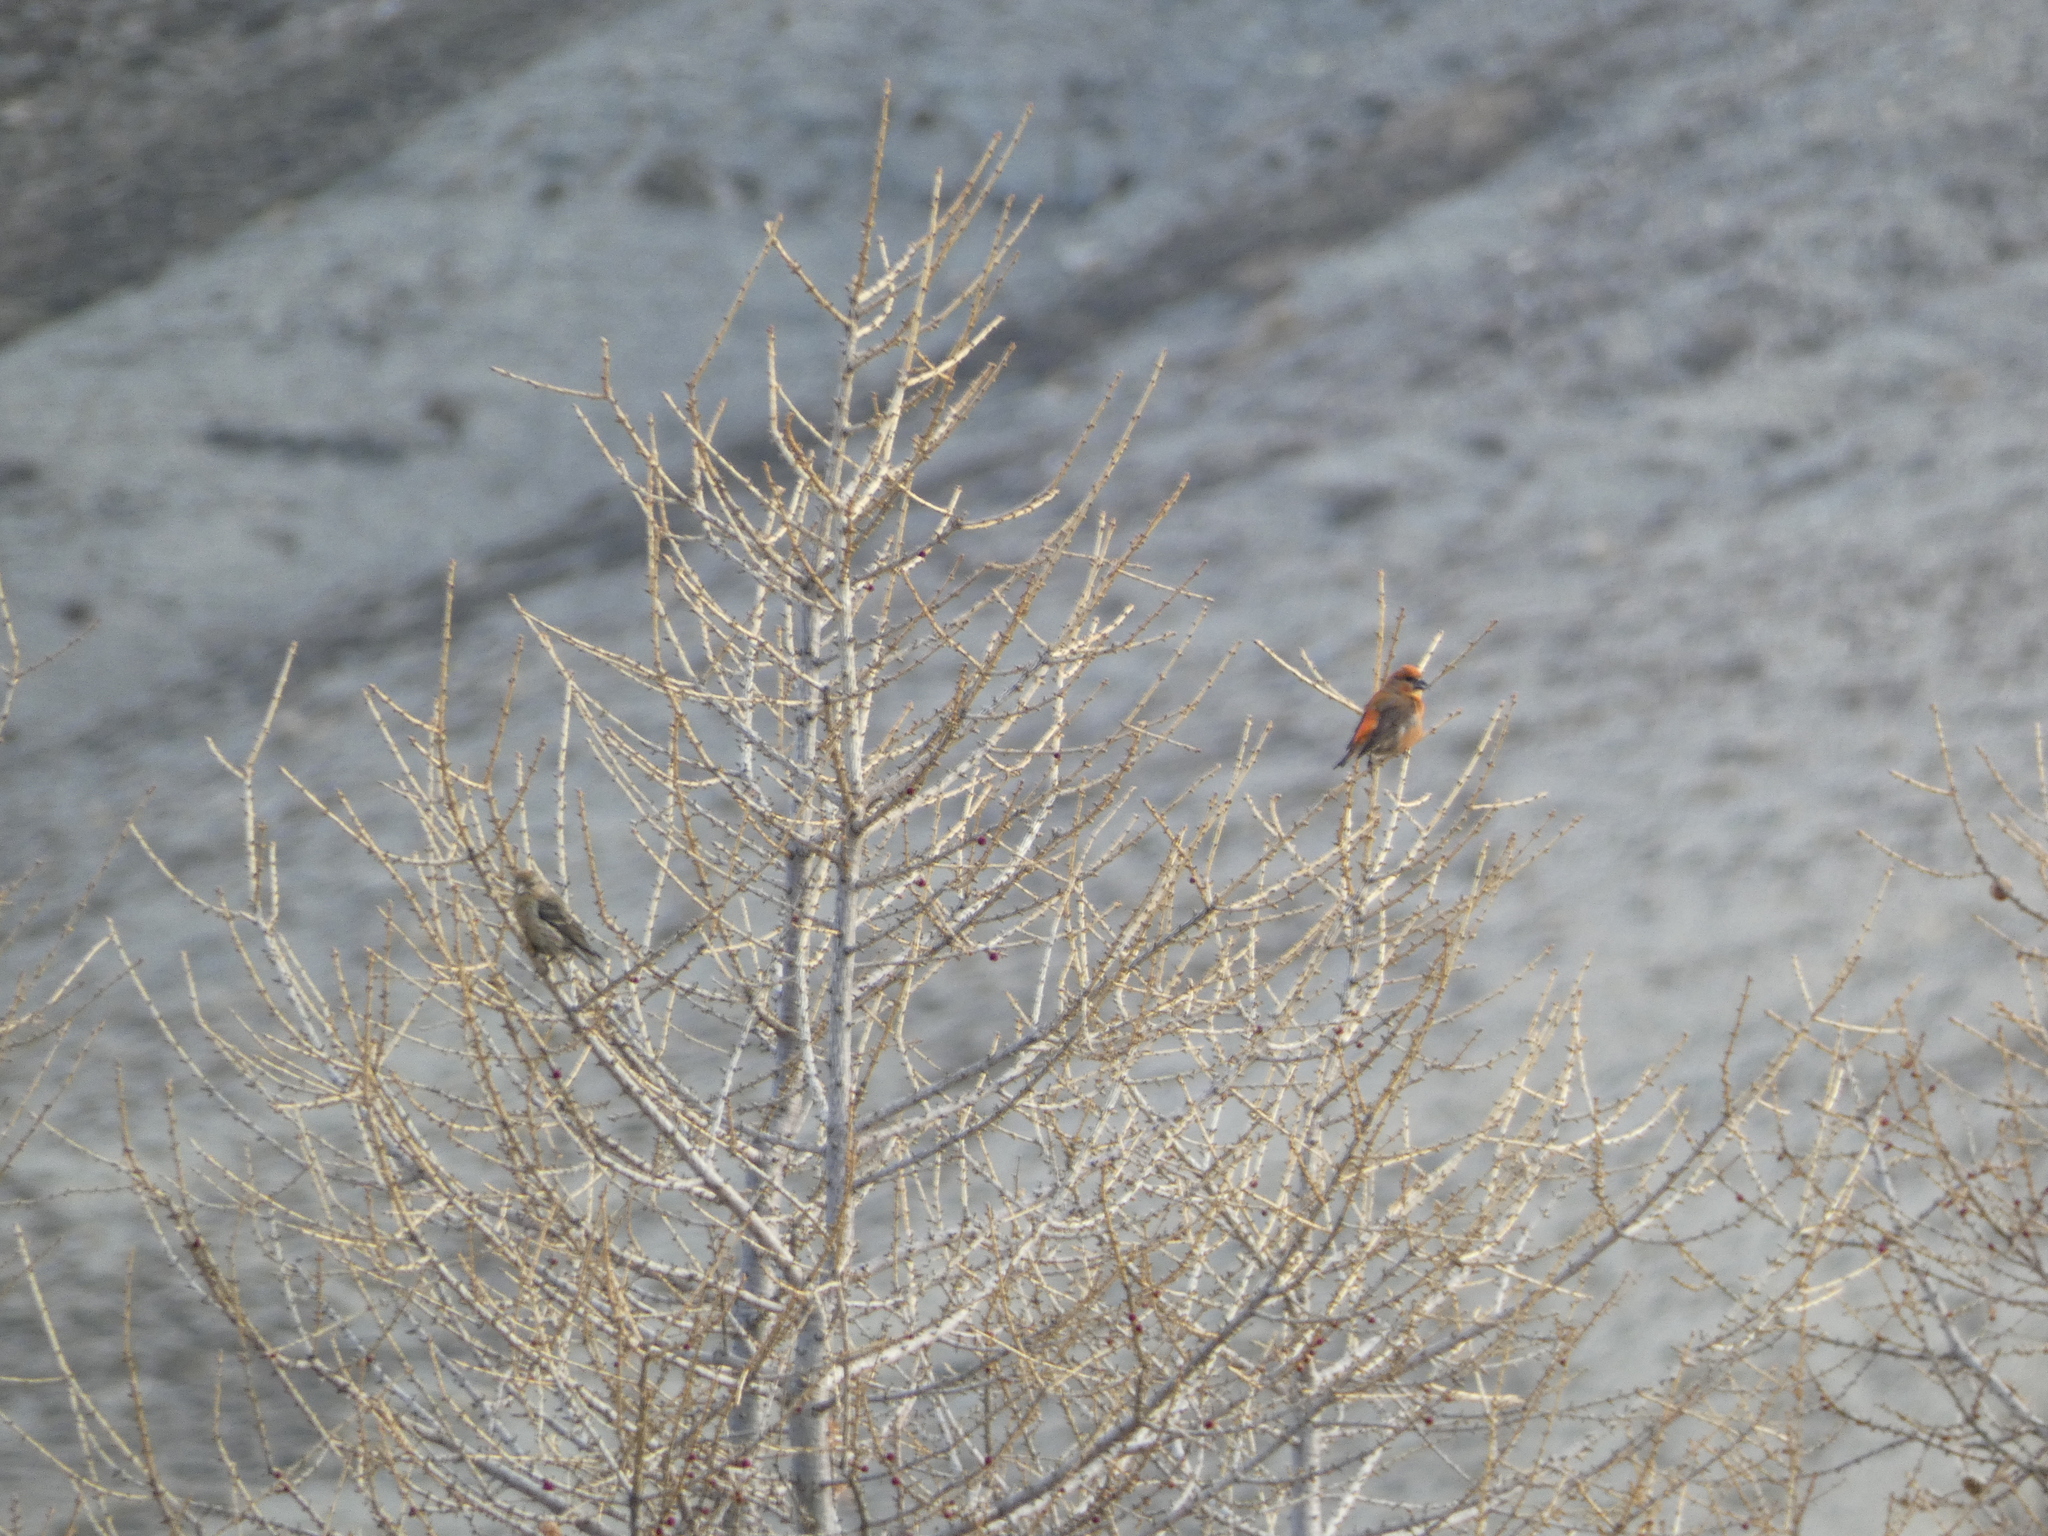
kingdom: Animalia
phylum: Chordata
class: Aves
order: Passeriformes
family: Fringillidae
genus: Loxia
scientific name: Loxia curvirostra
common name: Red crossbill
